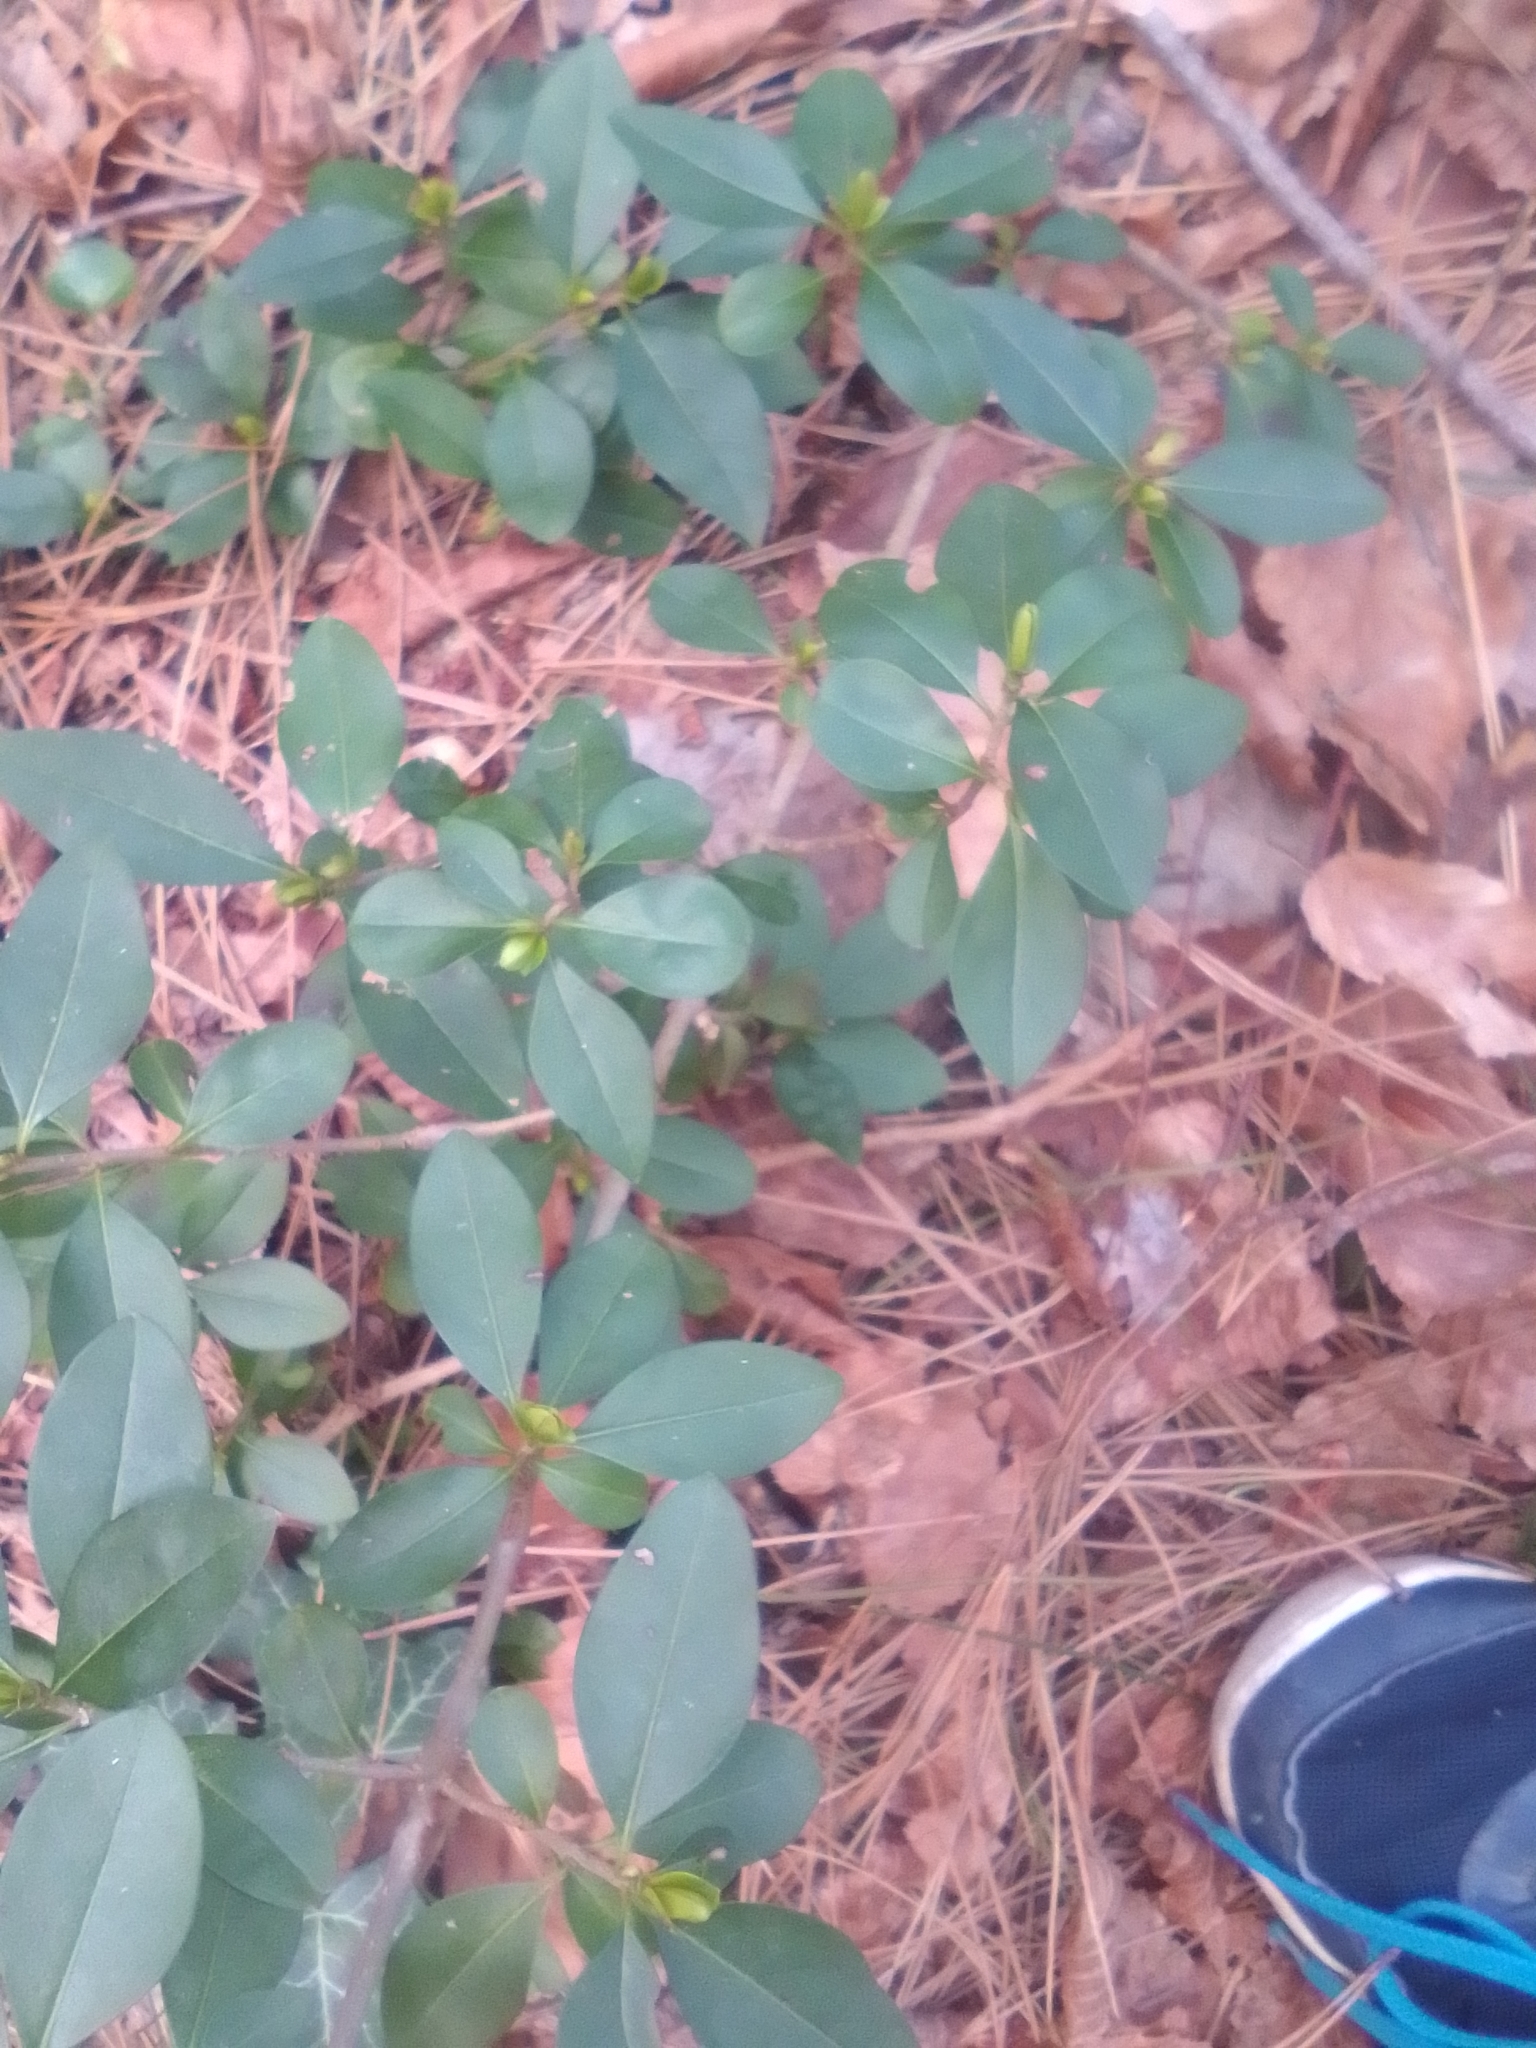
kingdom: Plantae
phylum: Tracheophyta
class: Magnoliopsida
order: Lamiales
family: Oleaceae
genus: Ligustrum
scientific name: Ligustrum vulgare
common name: Wild privet
